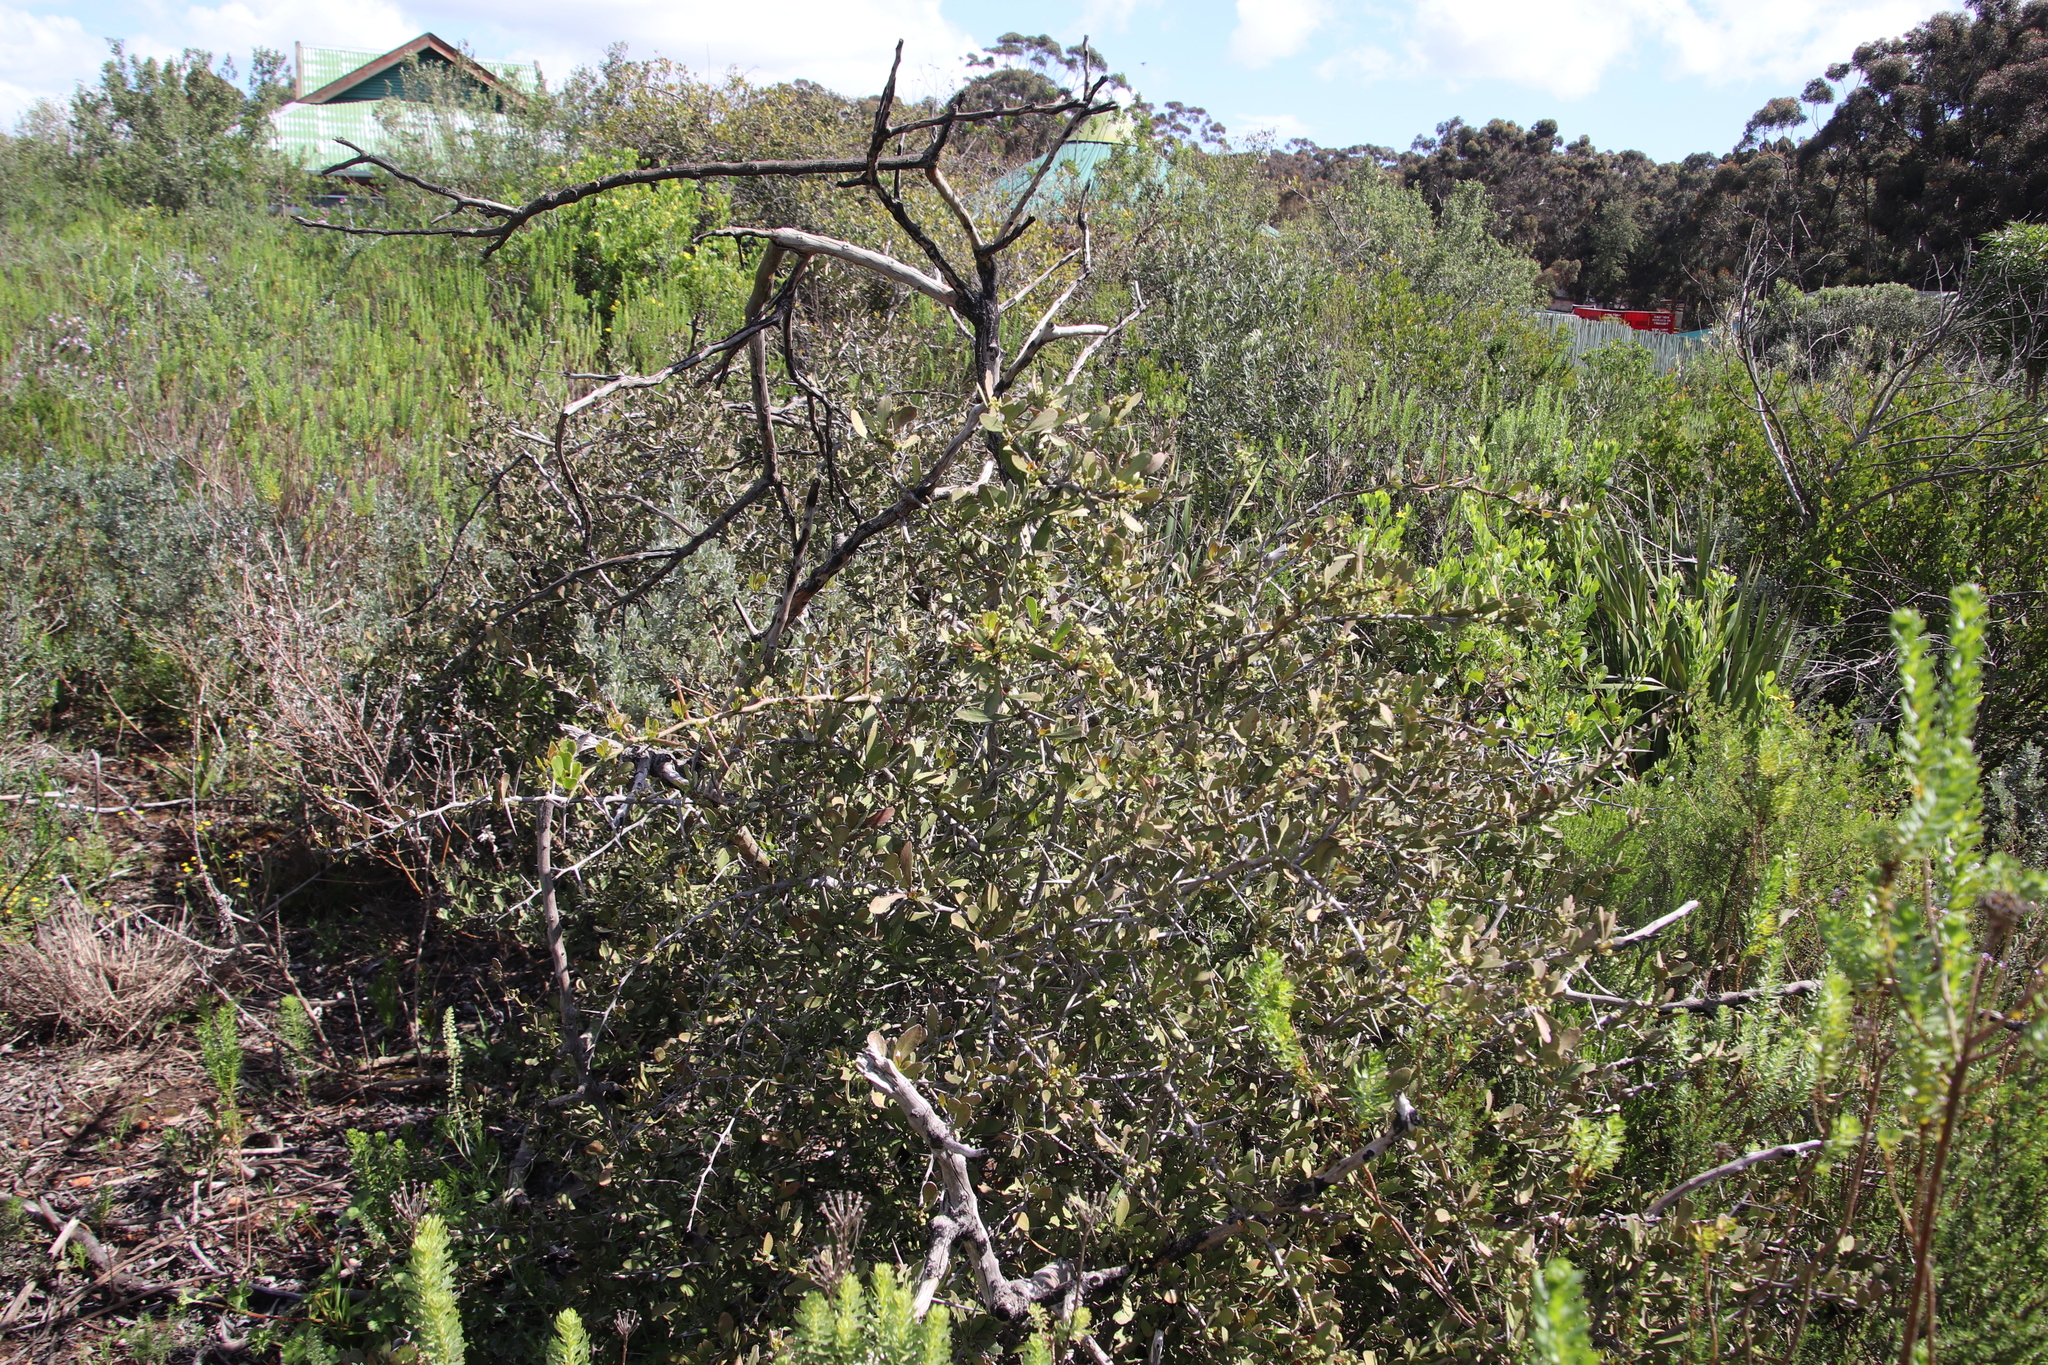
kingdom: Plantae
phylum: Tracheophyta
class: Magnoliopsida
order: Celastrales
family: Celastraceae
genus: Gymnosporia
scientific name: Gymnosporia buxifolia
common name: Common spike-thorn
